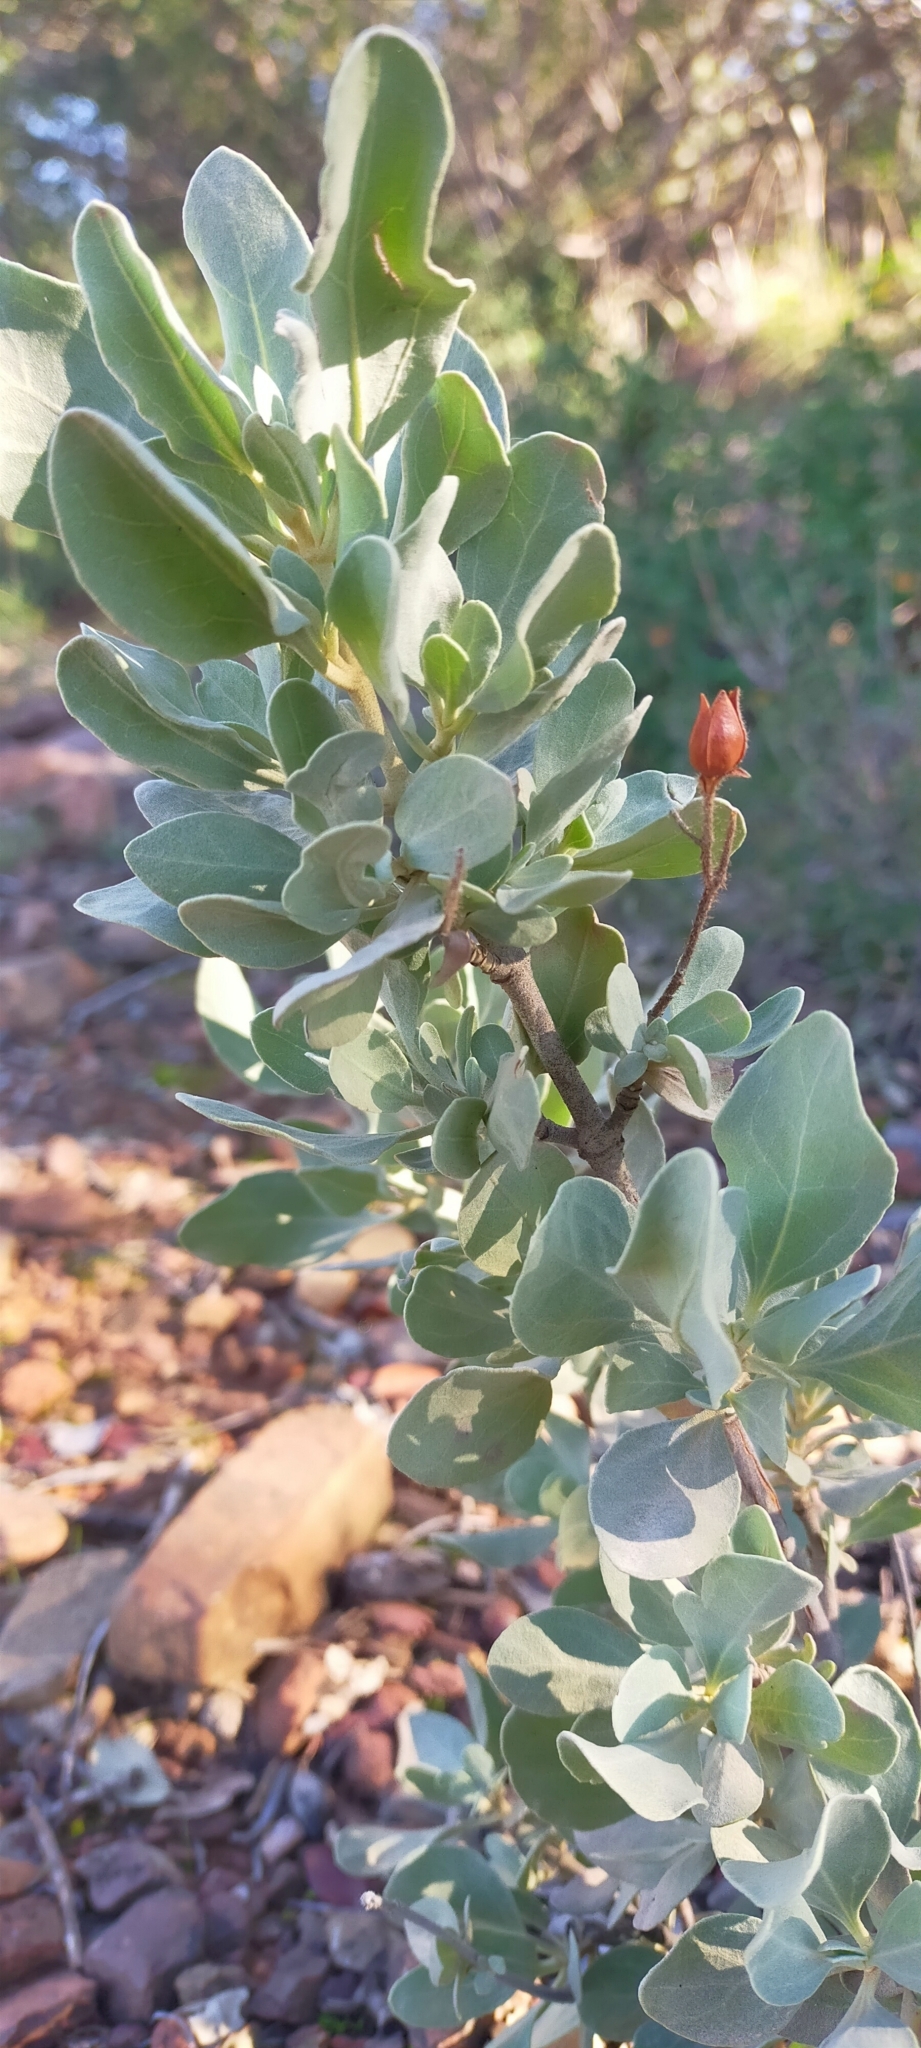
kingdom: Plantae
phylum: Tracheophyta
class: Magnoliopsida
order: Malvales
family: Cistaceae
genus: Halimium
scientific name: Halimium atriplicifolium
